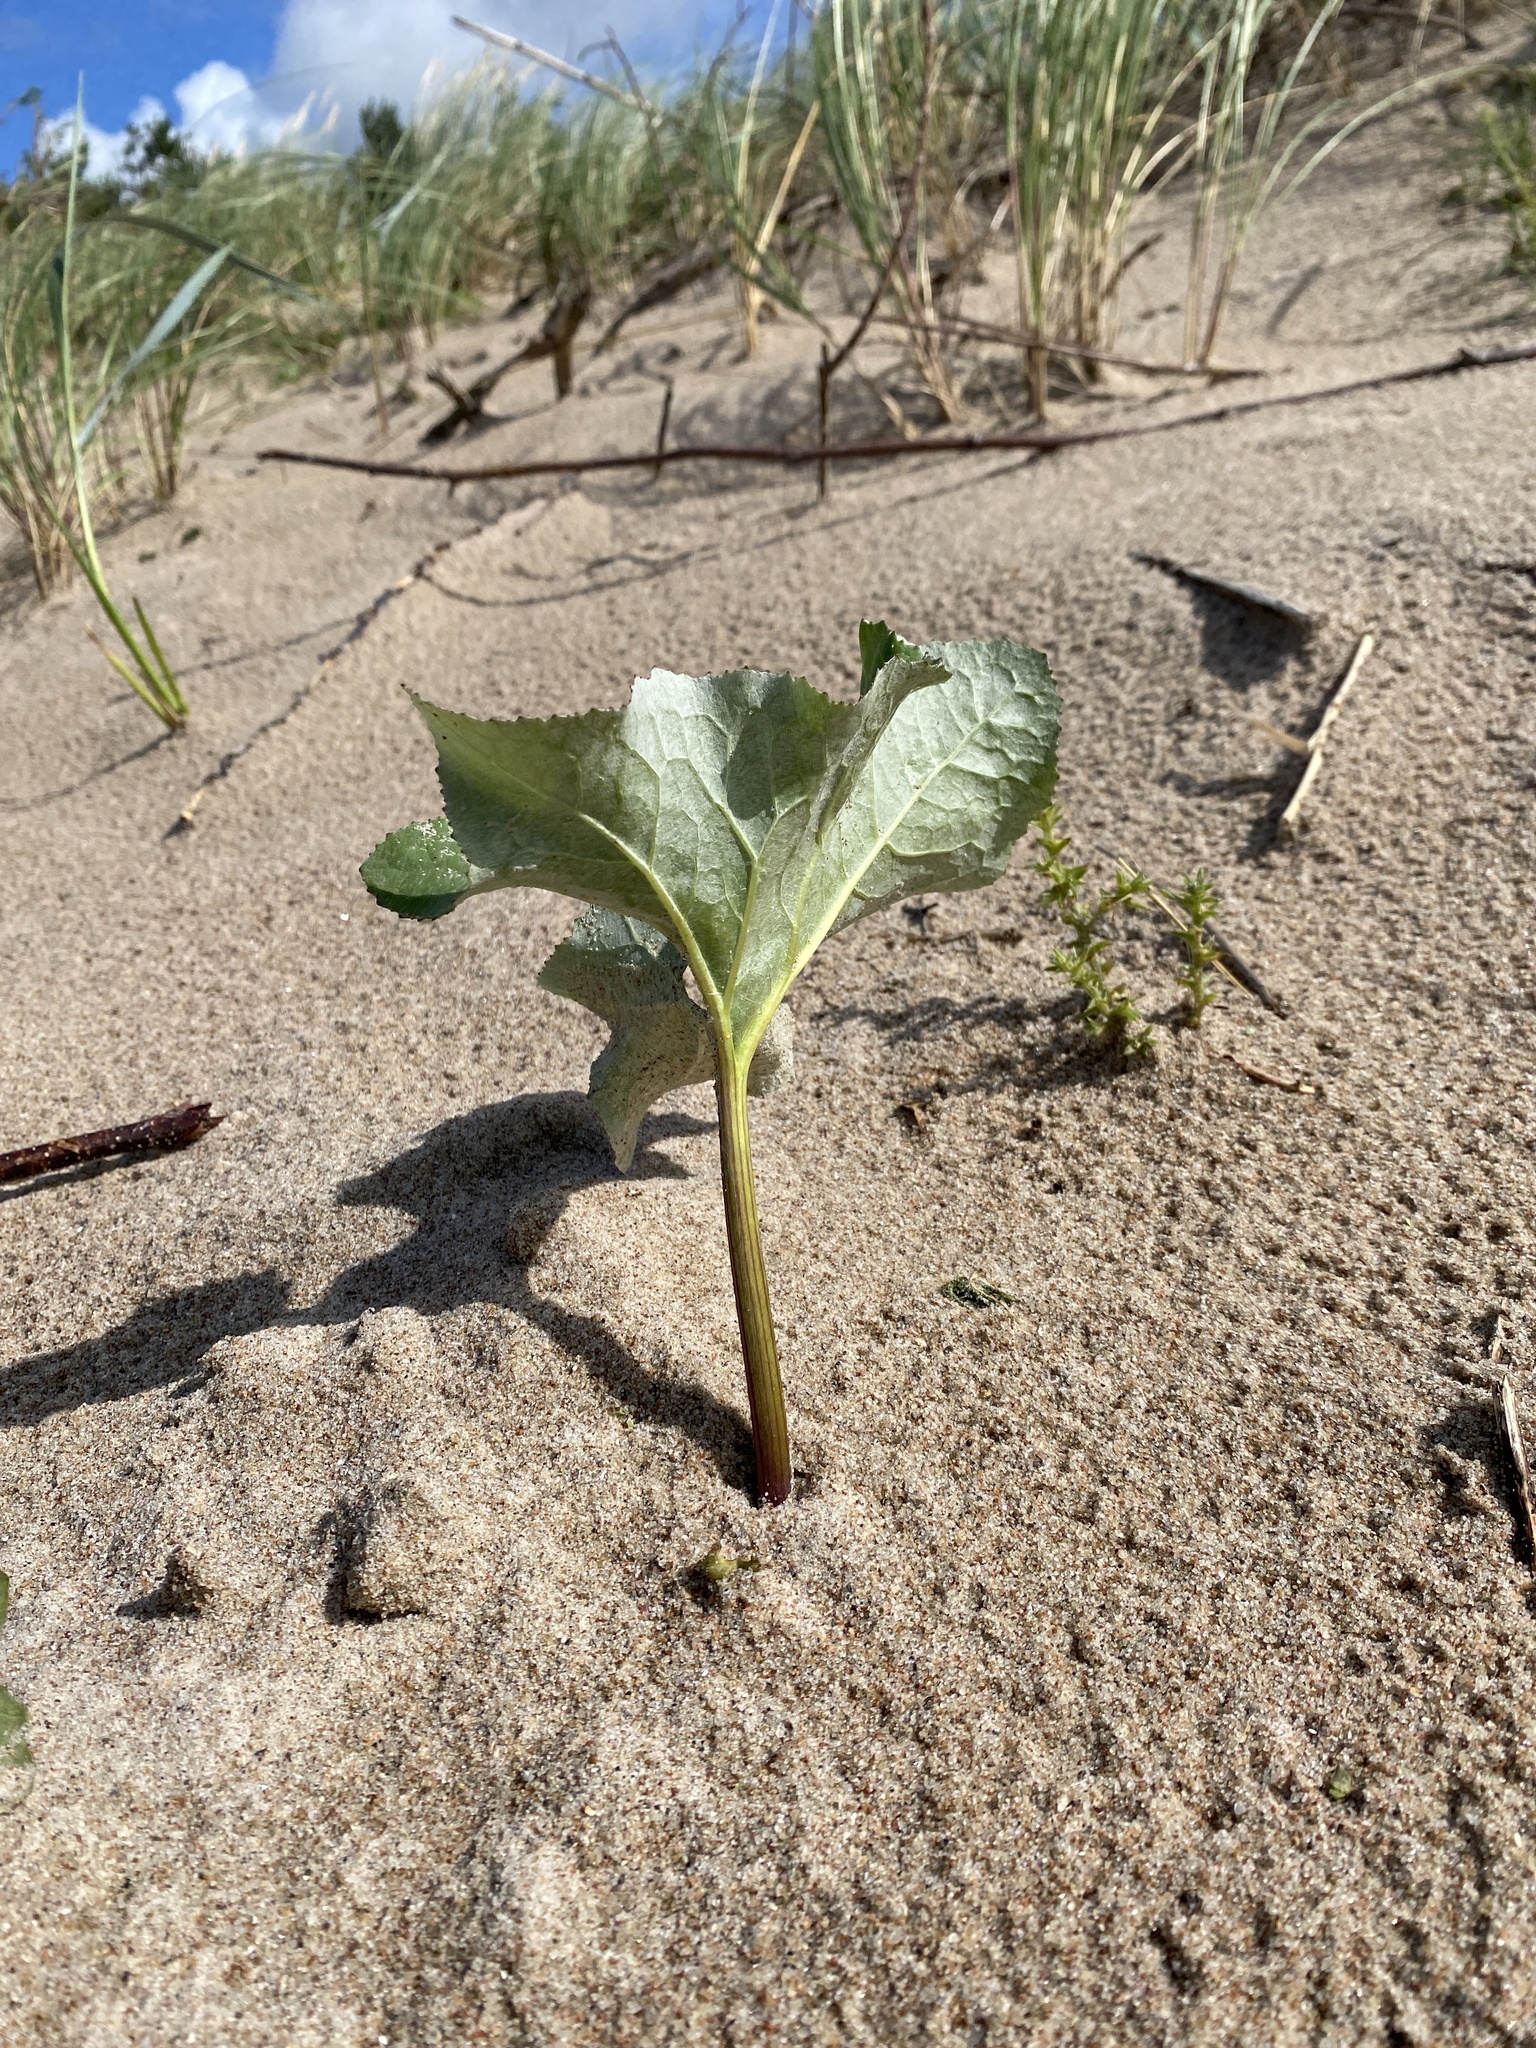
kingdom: Plantae
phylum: Tracheophyta
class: Magnoliopsida
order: Asterales
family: Asteraceae
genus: Petasites
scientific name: Petasites spurius
